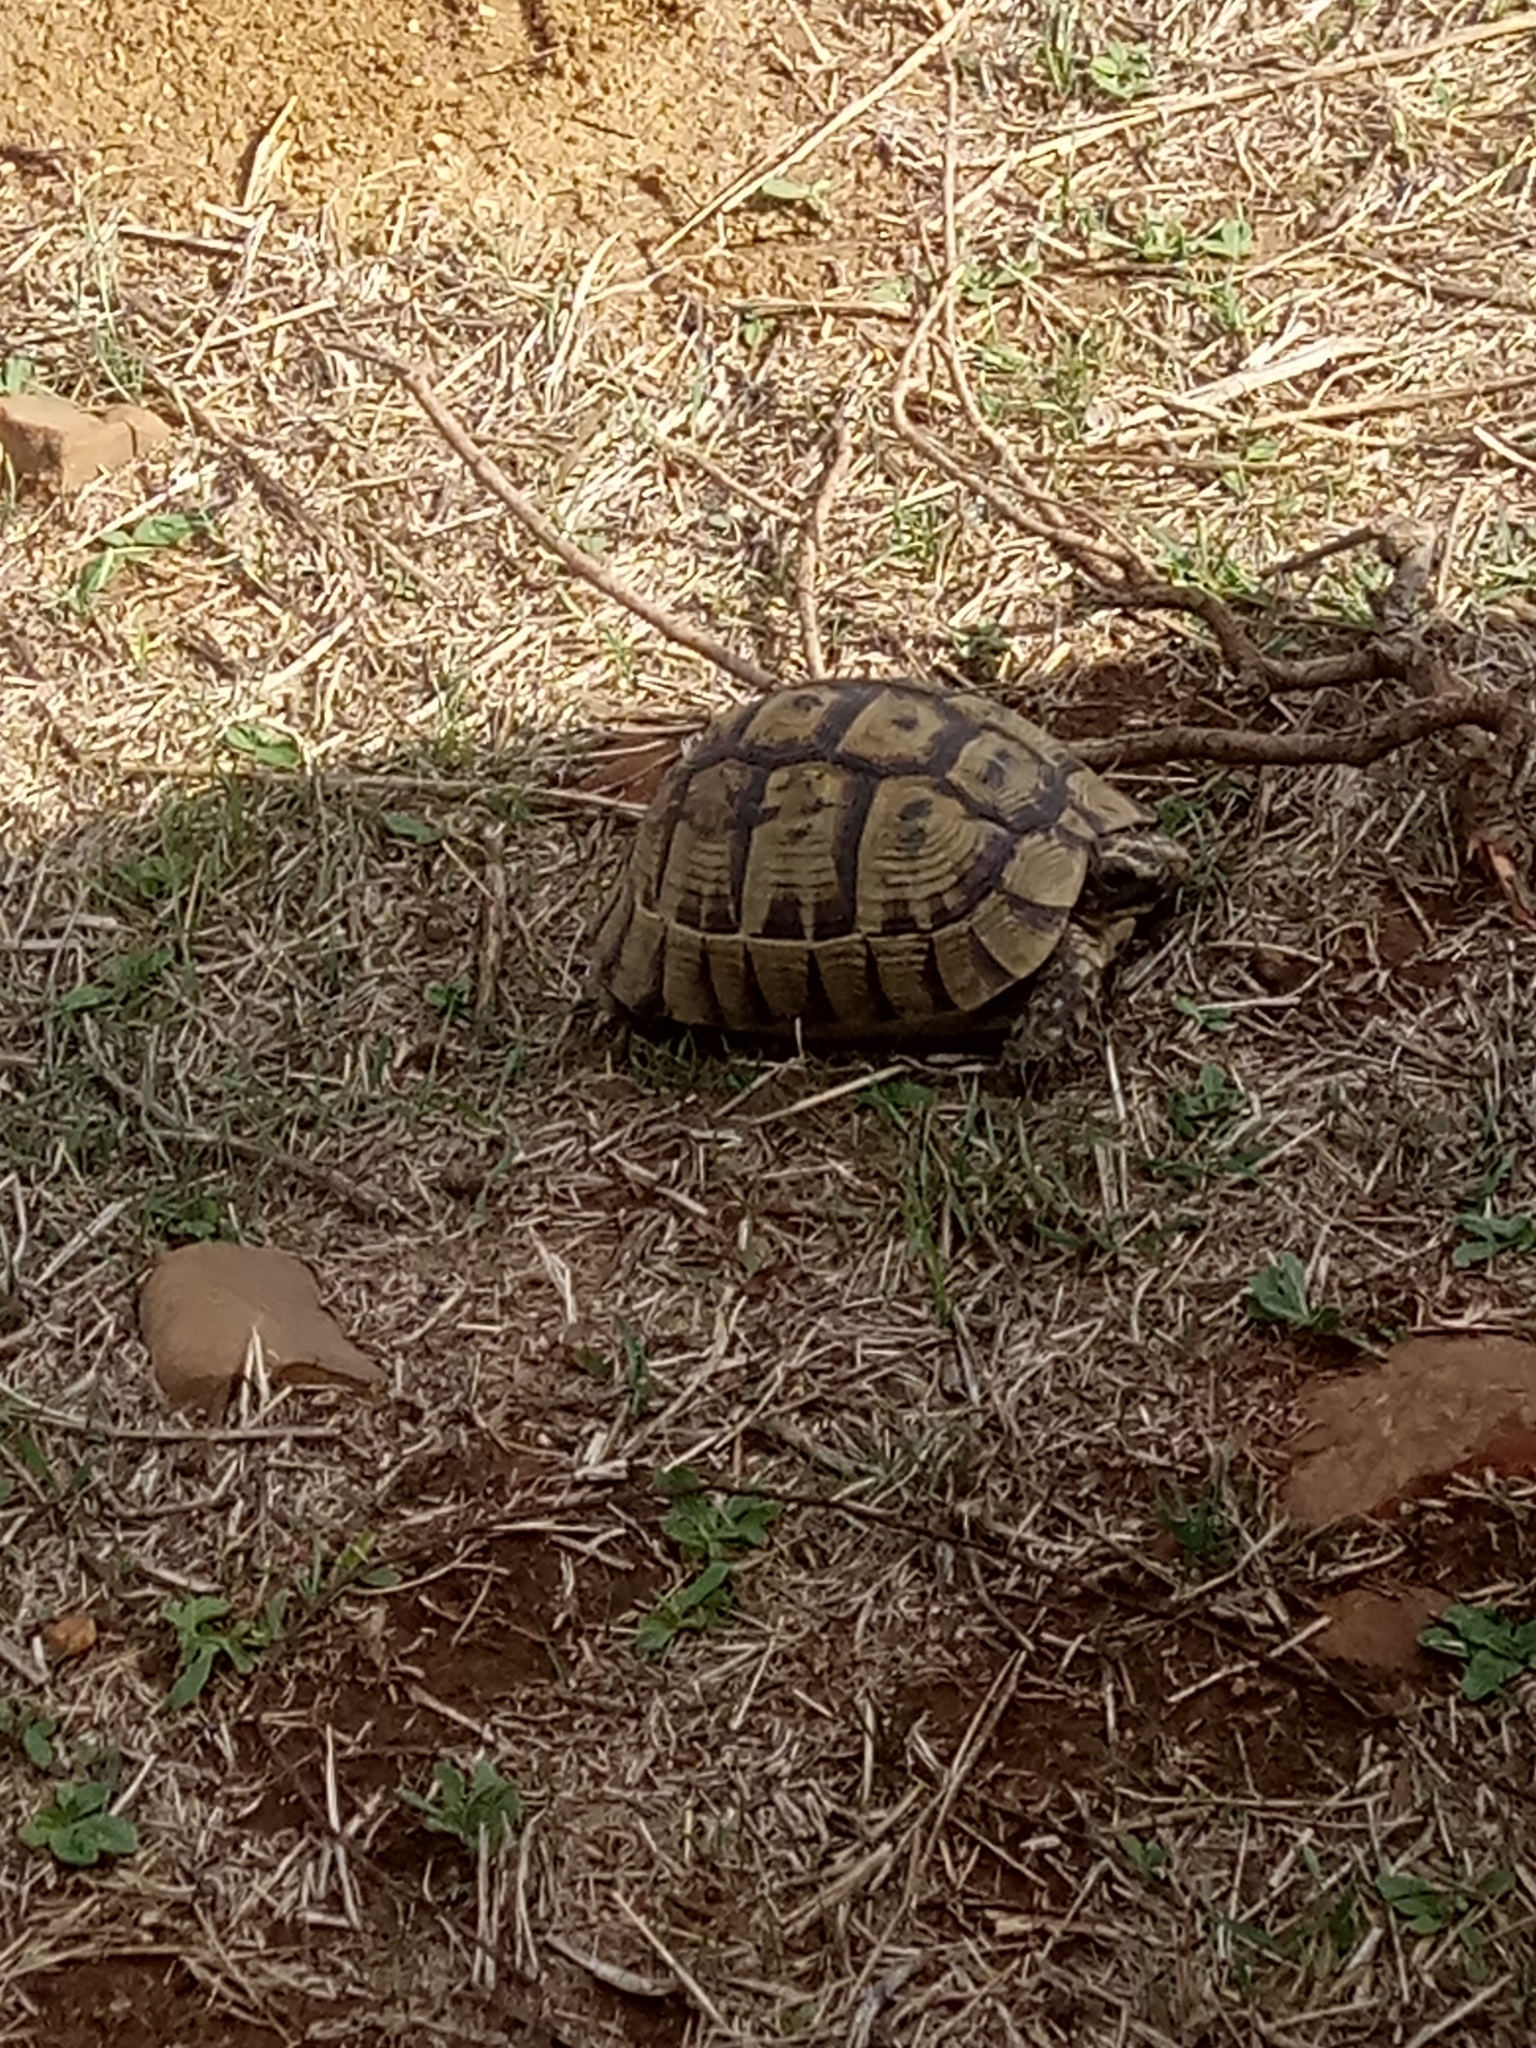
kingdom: Animalia
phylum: Chordata
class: Testudines
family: Testudinidae
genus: Testudo
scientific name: Testudo graeca
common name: Common tortoise
